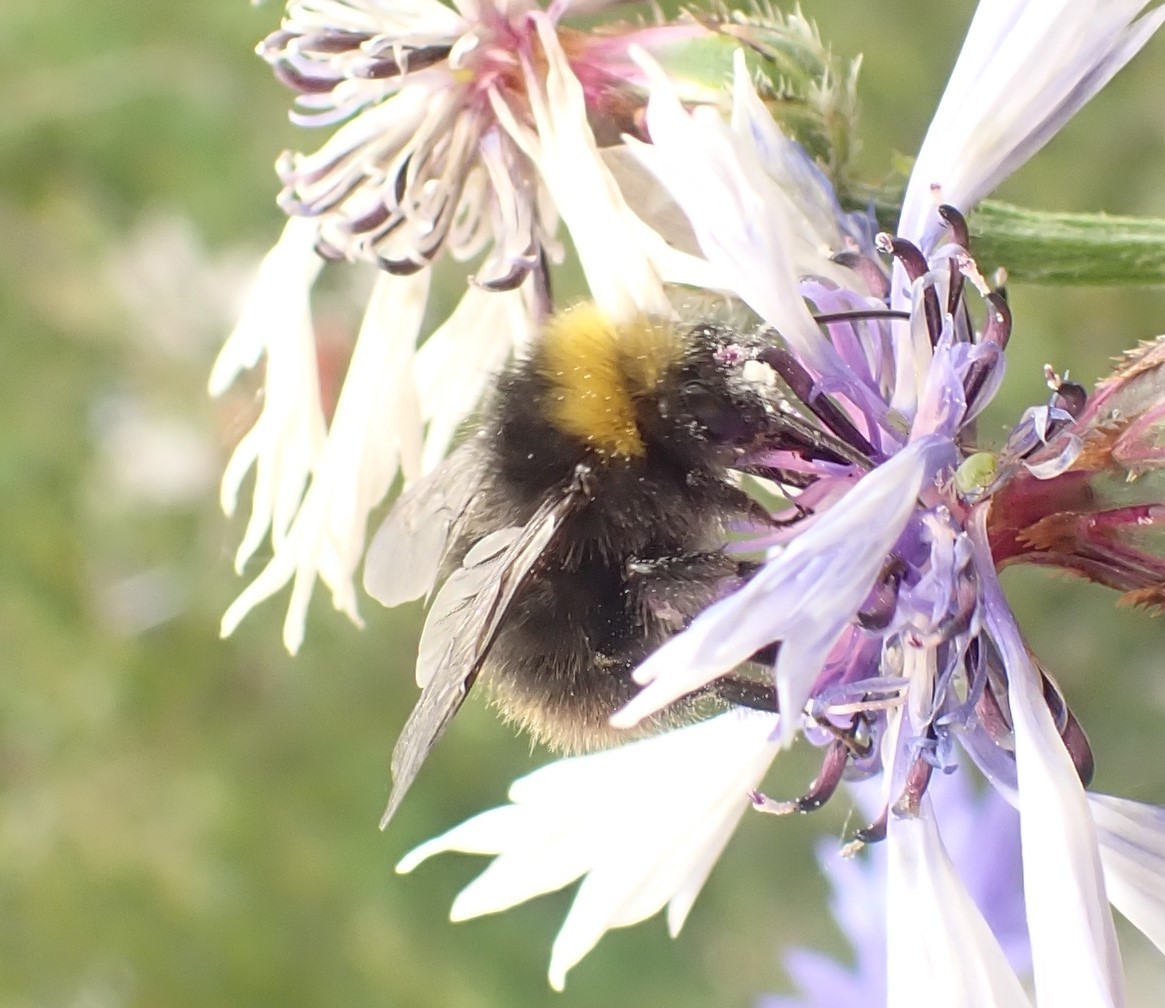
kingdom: Animalia
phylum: Arthropoda
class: Insecta
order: Hymenoptera
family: Apidae
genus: Bombus
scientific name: Bombus pratorum
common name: Early humble-bee
